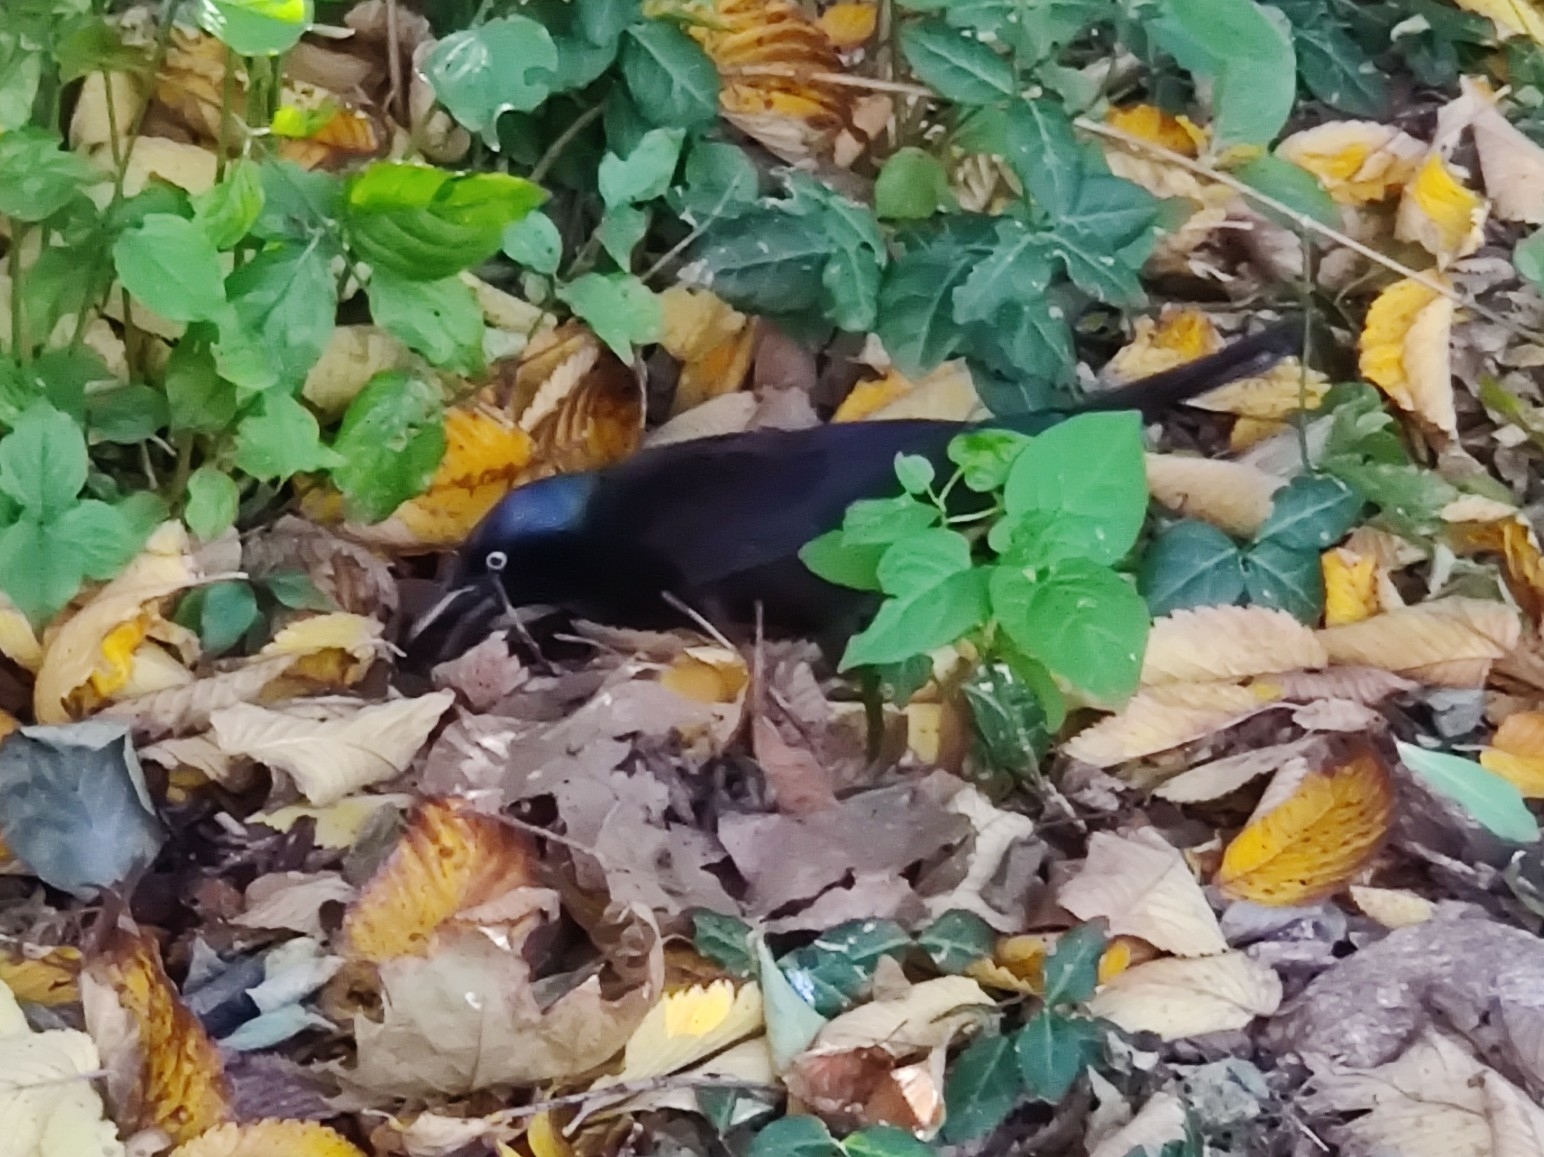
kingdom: Animalia
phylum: Chordata
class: Aves
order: Passeriformes
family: Icteridae
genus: Quiscalus
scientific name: Quiscalus quiscula
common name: Common grackle
